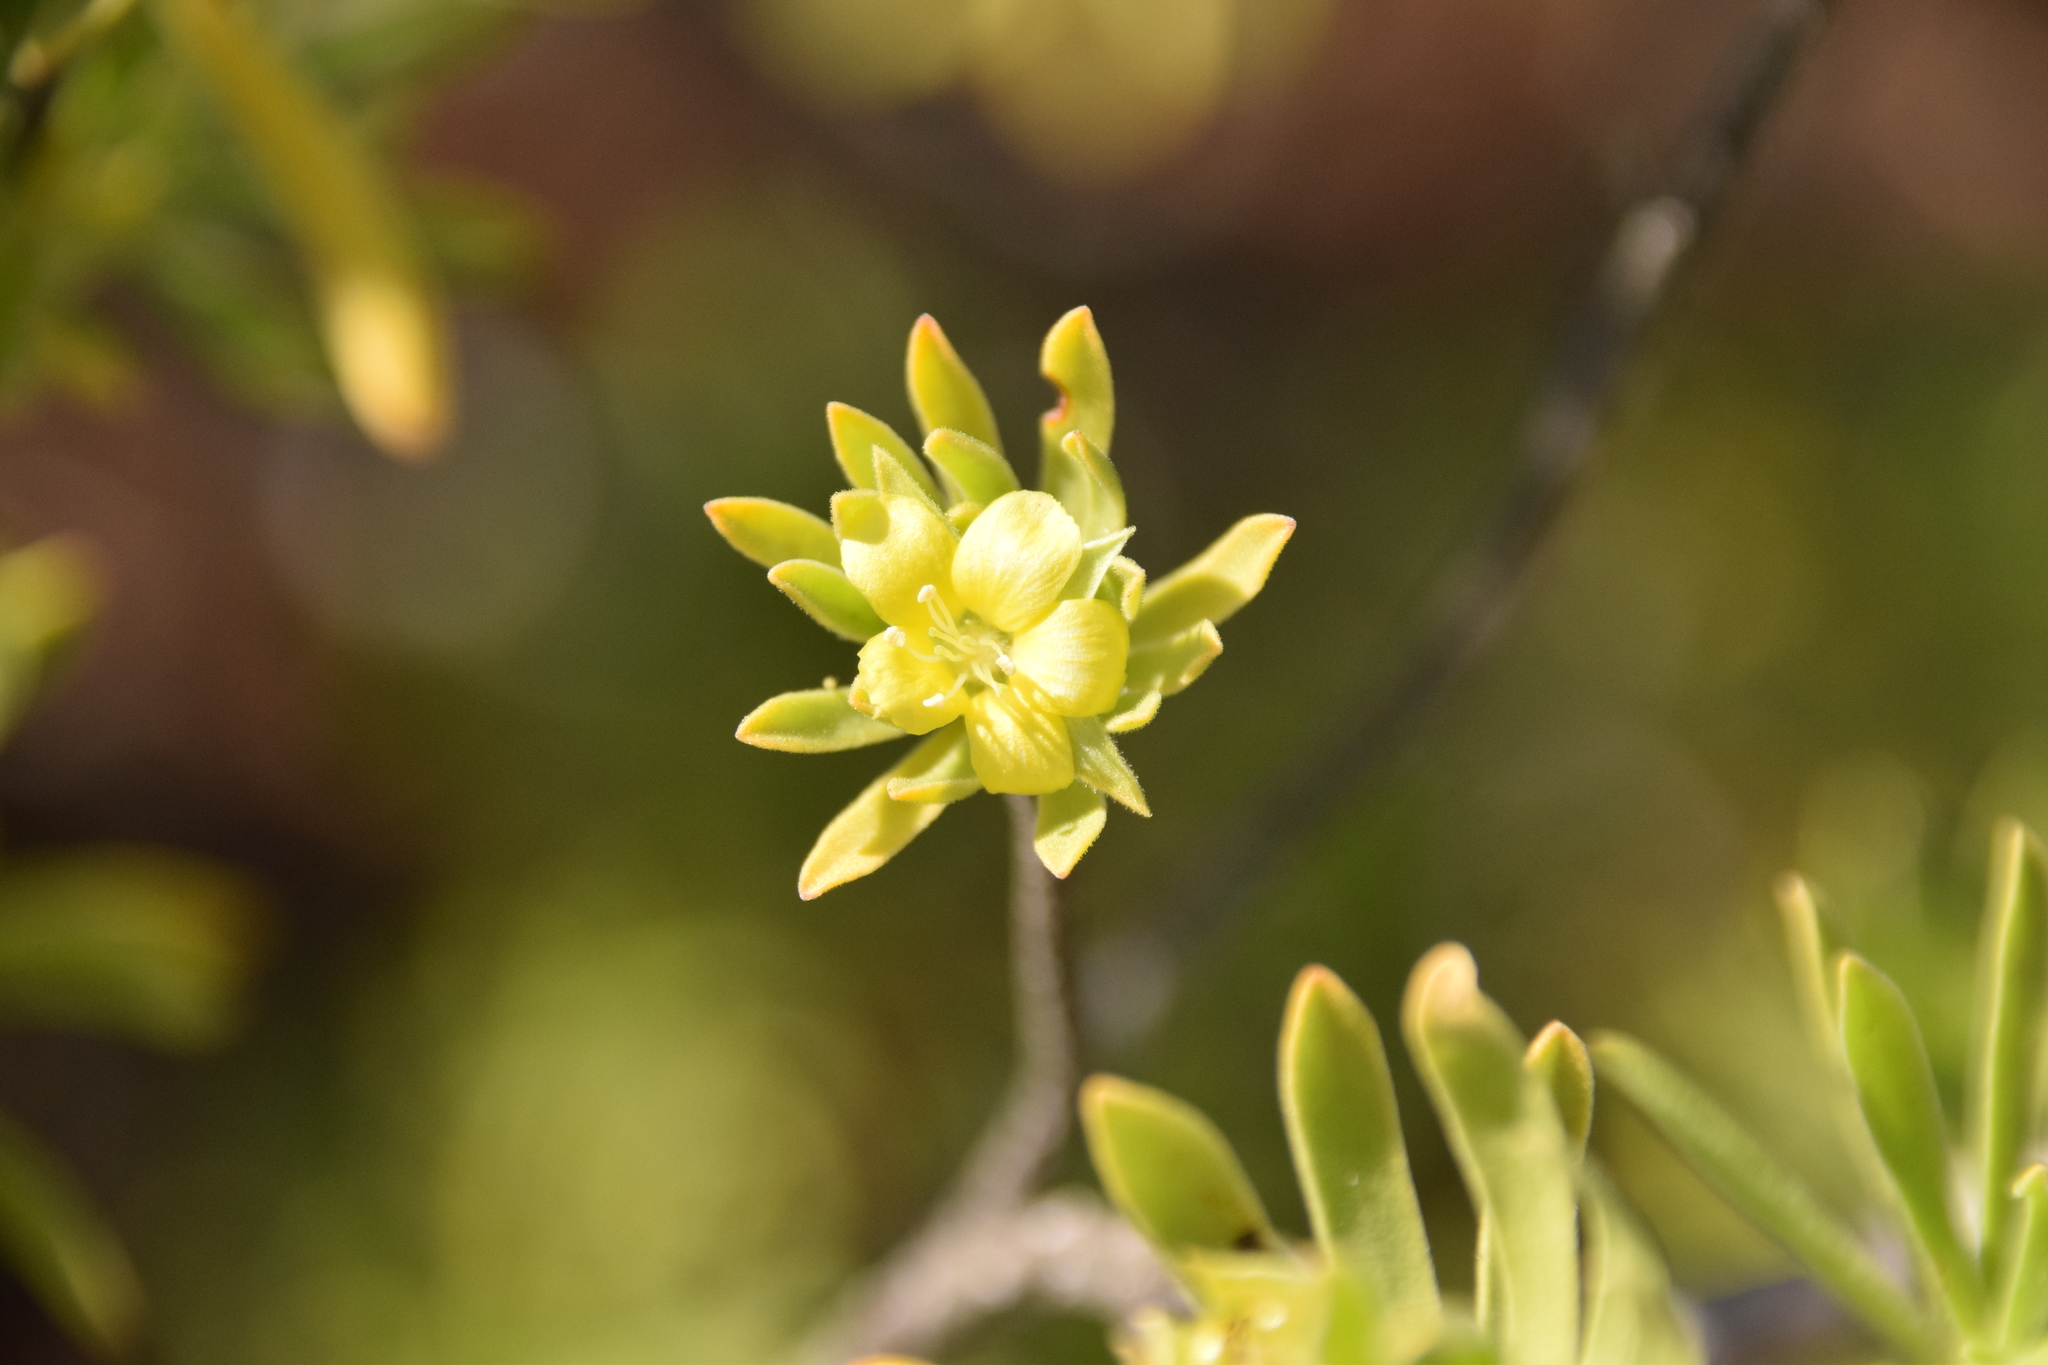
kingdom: Plantae
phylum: Tracheophyta
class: Magnoliopsida
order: Fabales
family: Surianaceae
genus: Suriana
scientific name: Suriana maritima
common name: Bay-cedar
